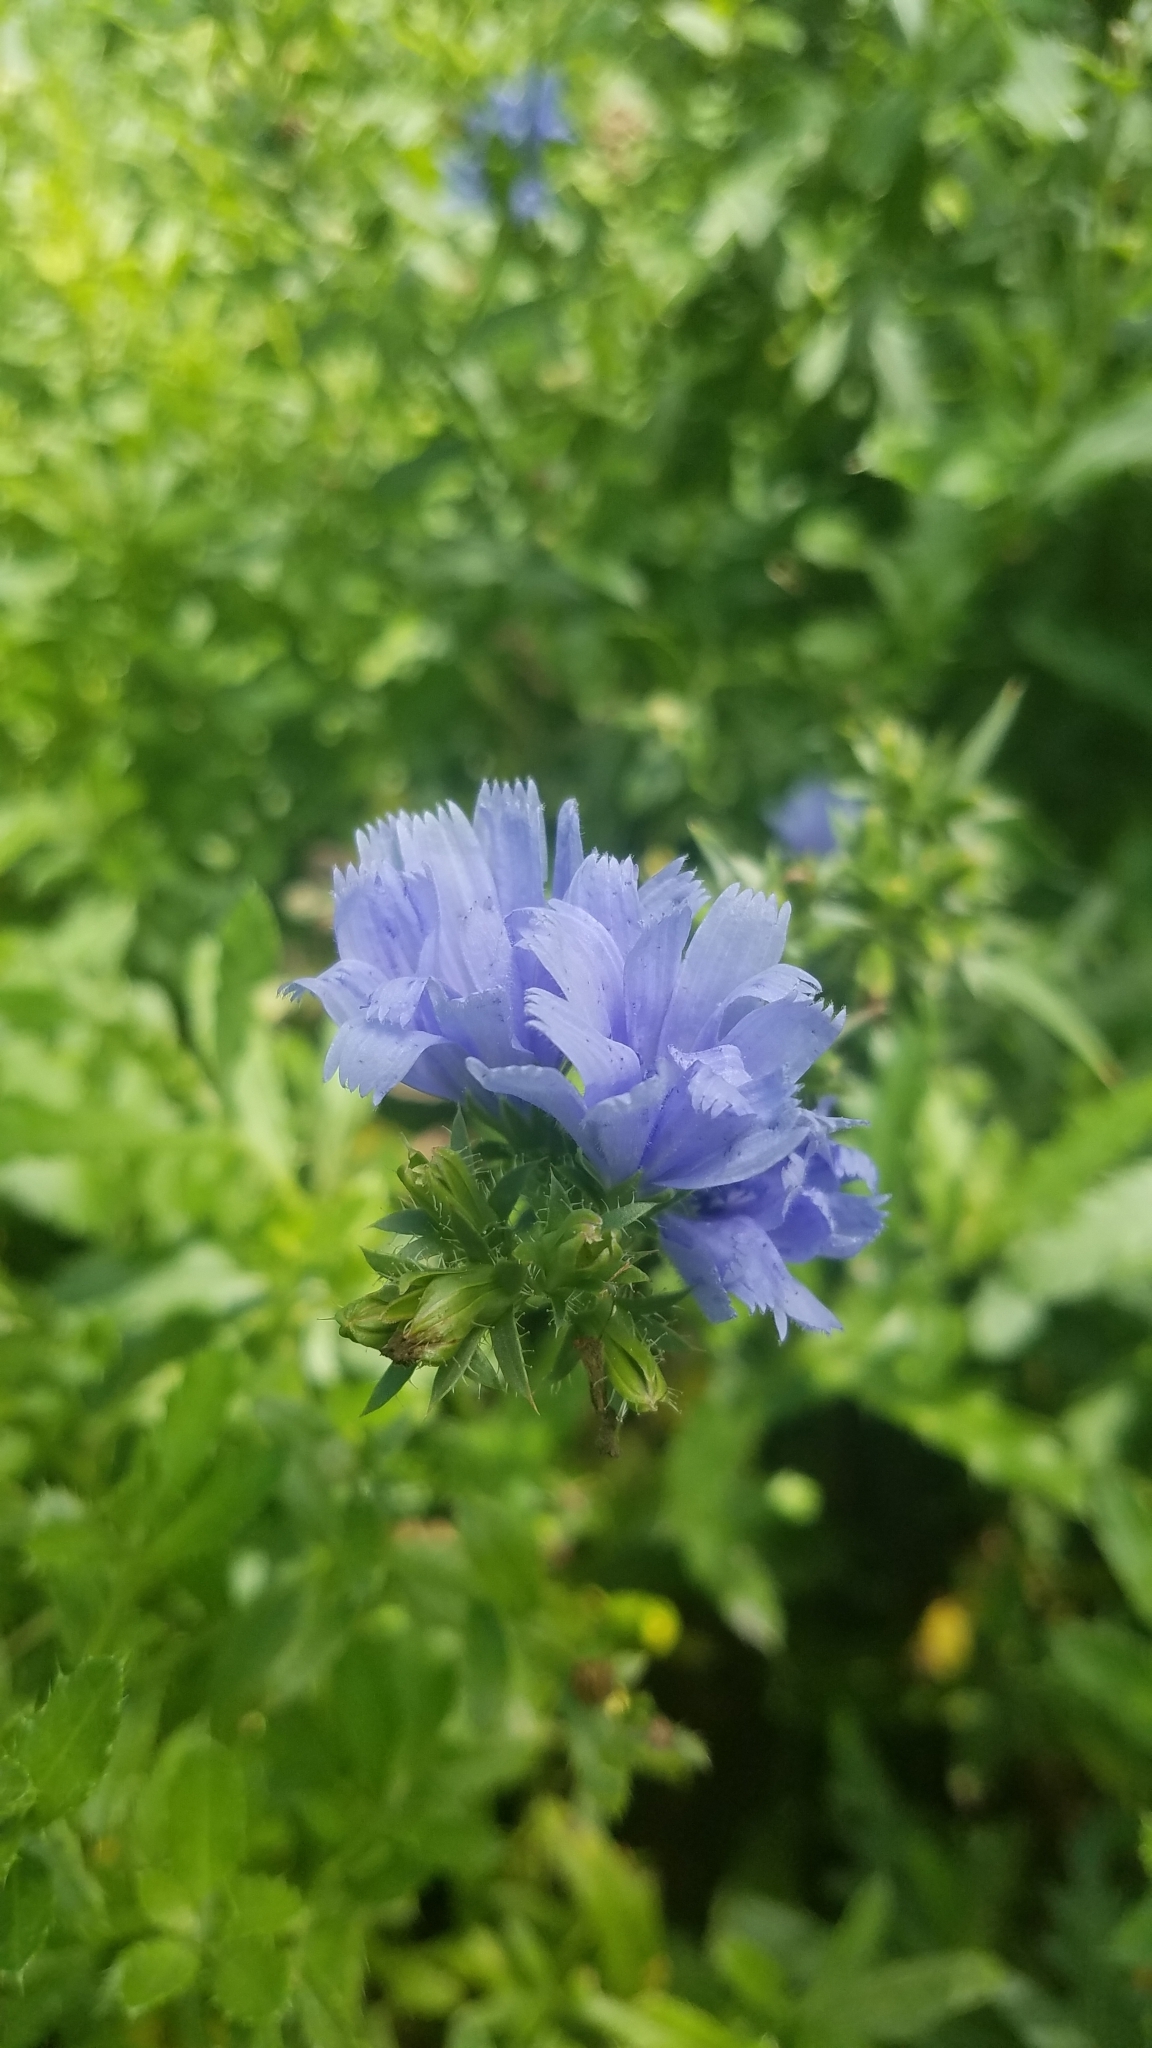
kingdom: Plantae
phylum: Tracheophyta
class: Magnoliopsida
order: Asterales
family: Asteraceae
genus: Cichorium
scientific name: Cichorium intybus
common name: Chicory
